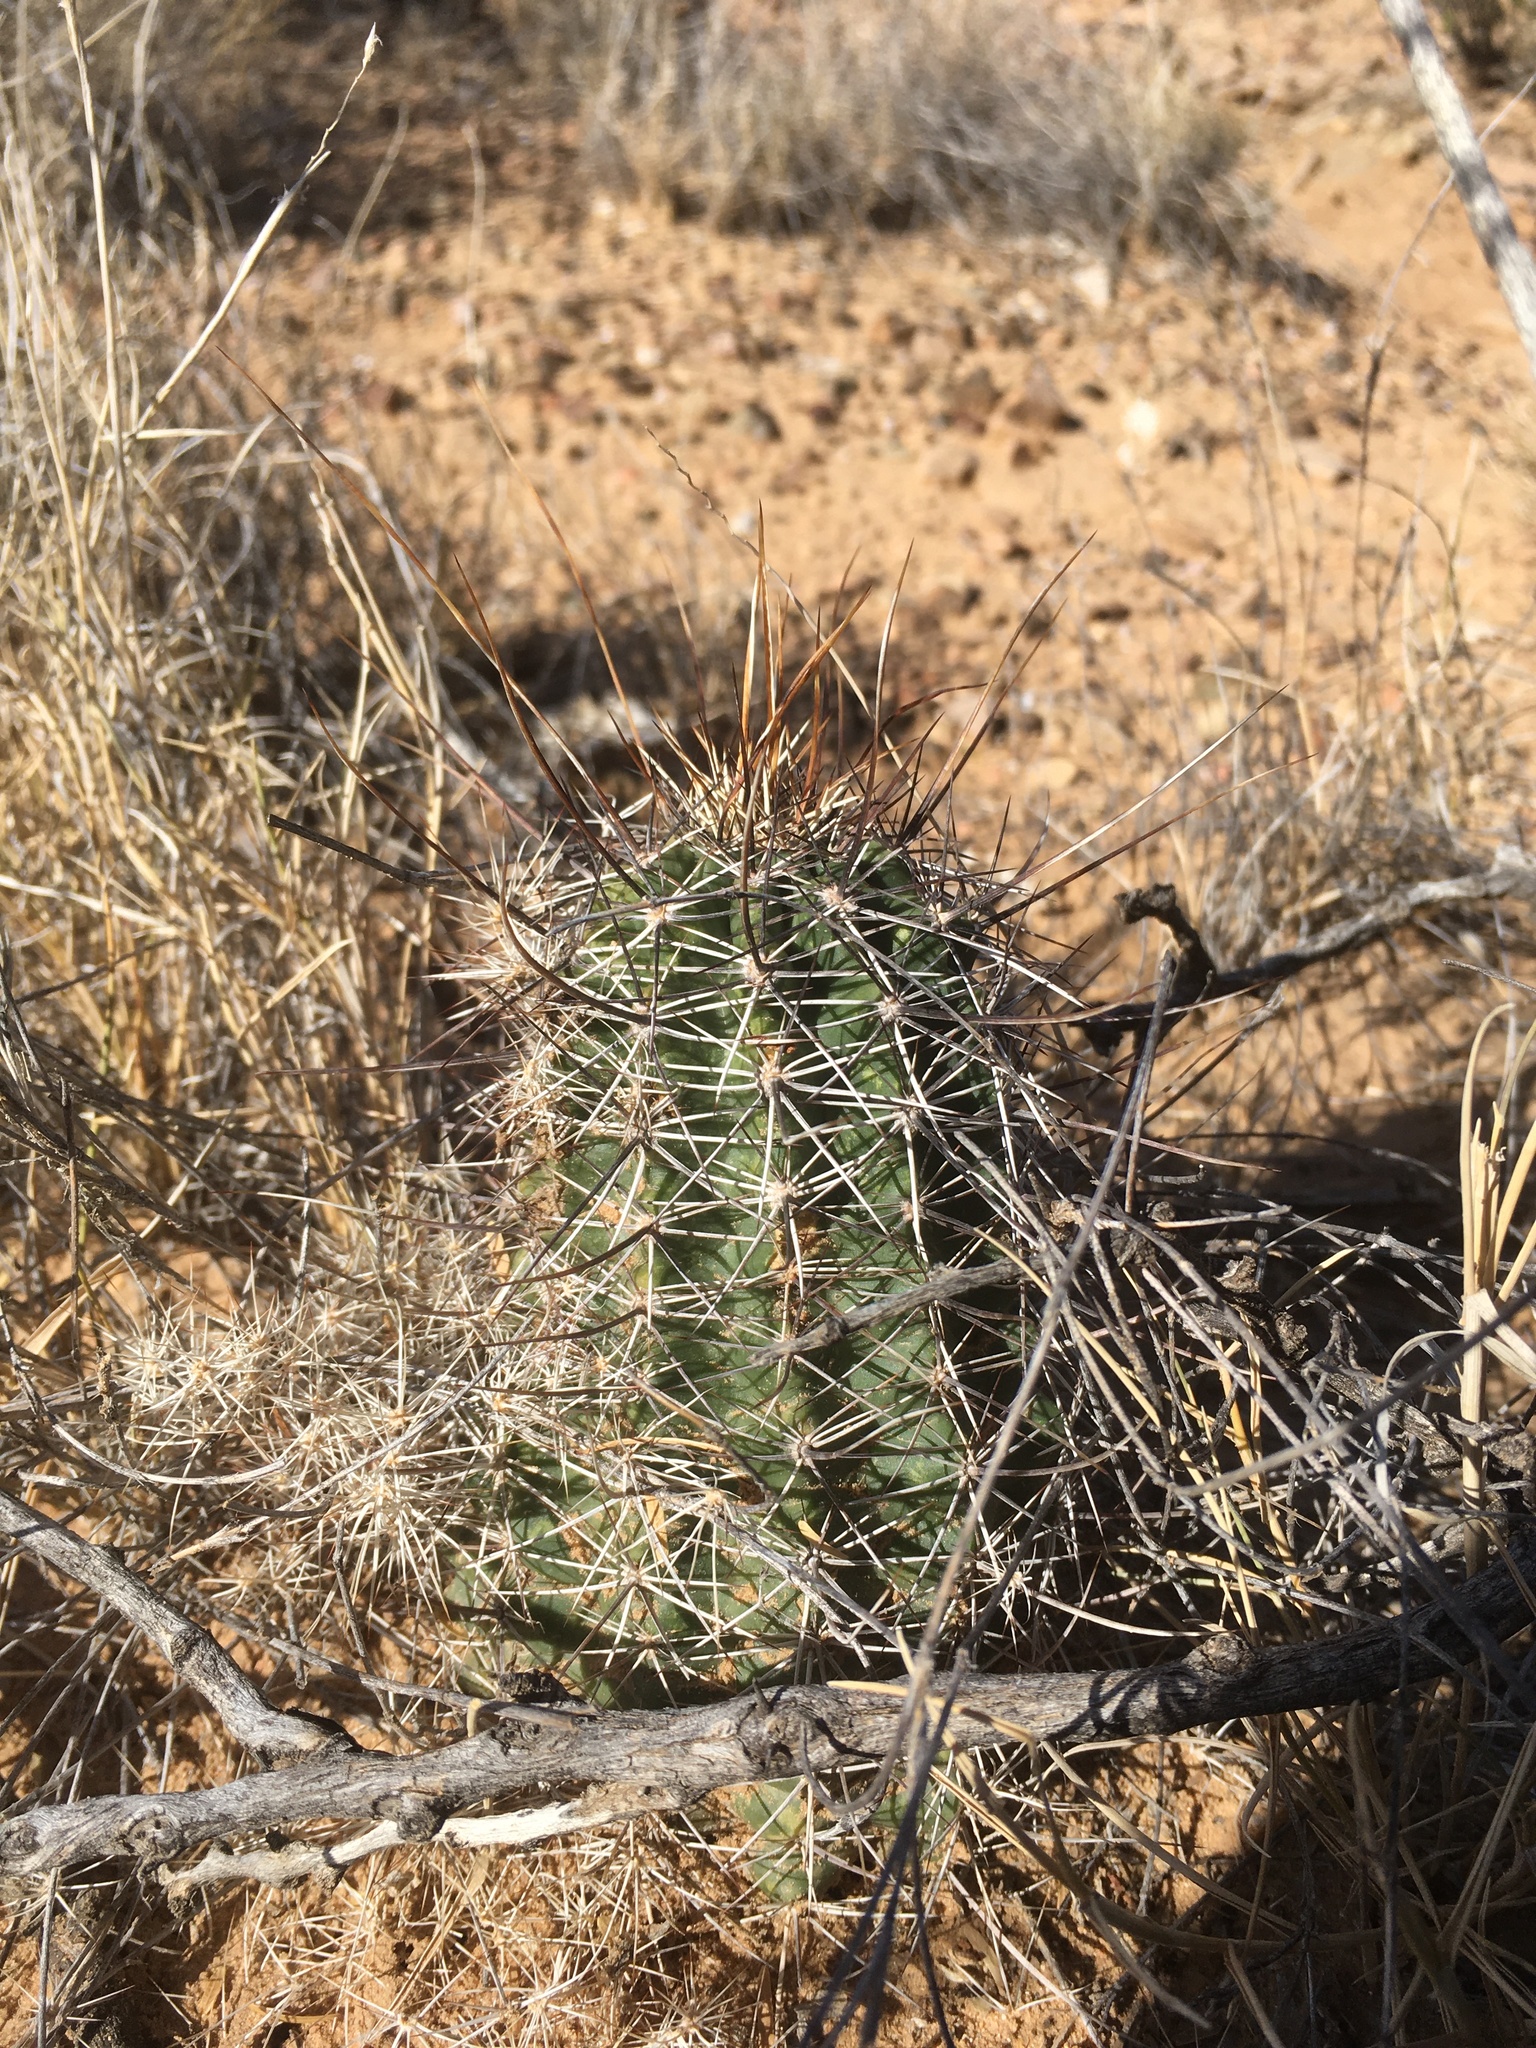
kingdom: Plantae
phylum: Tracheophyta
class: Magnoliopsida
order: Caryophyllales
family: Cactaceae
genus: Echinocereus
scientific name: Echinocereus fendleri
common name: Fendler's hedgehog cactus
